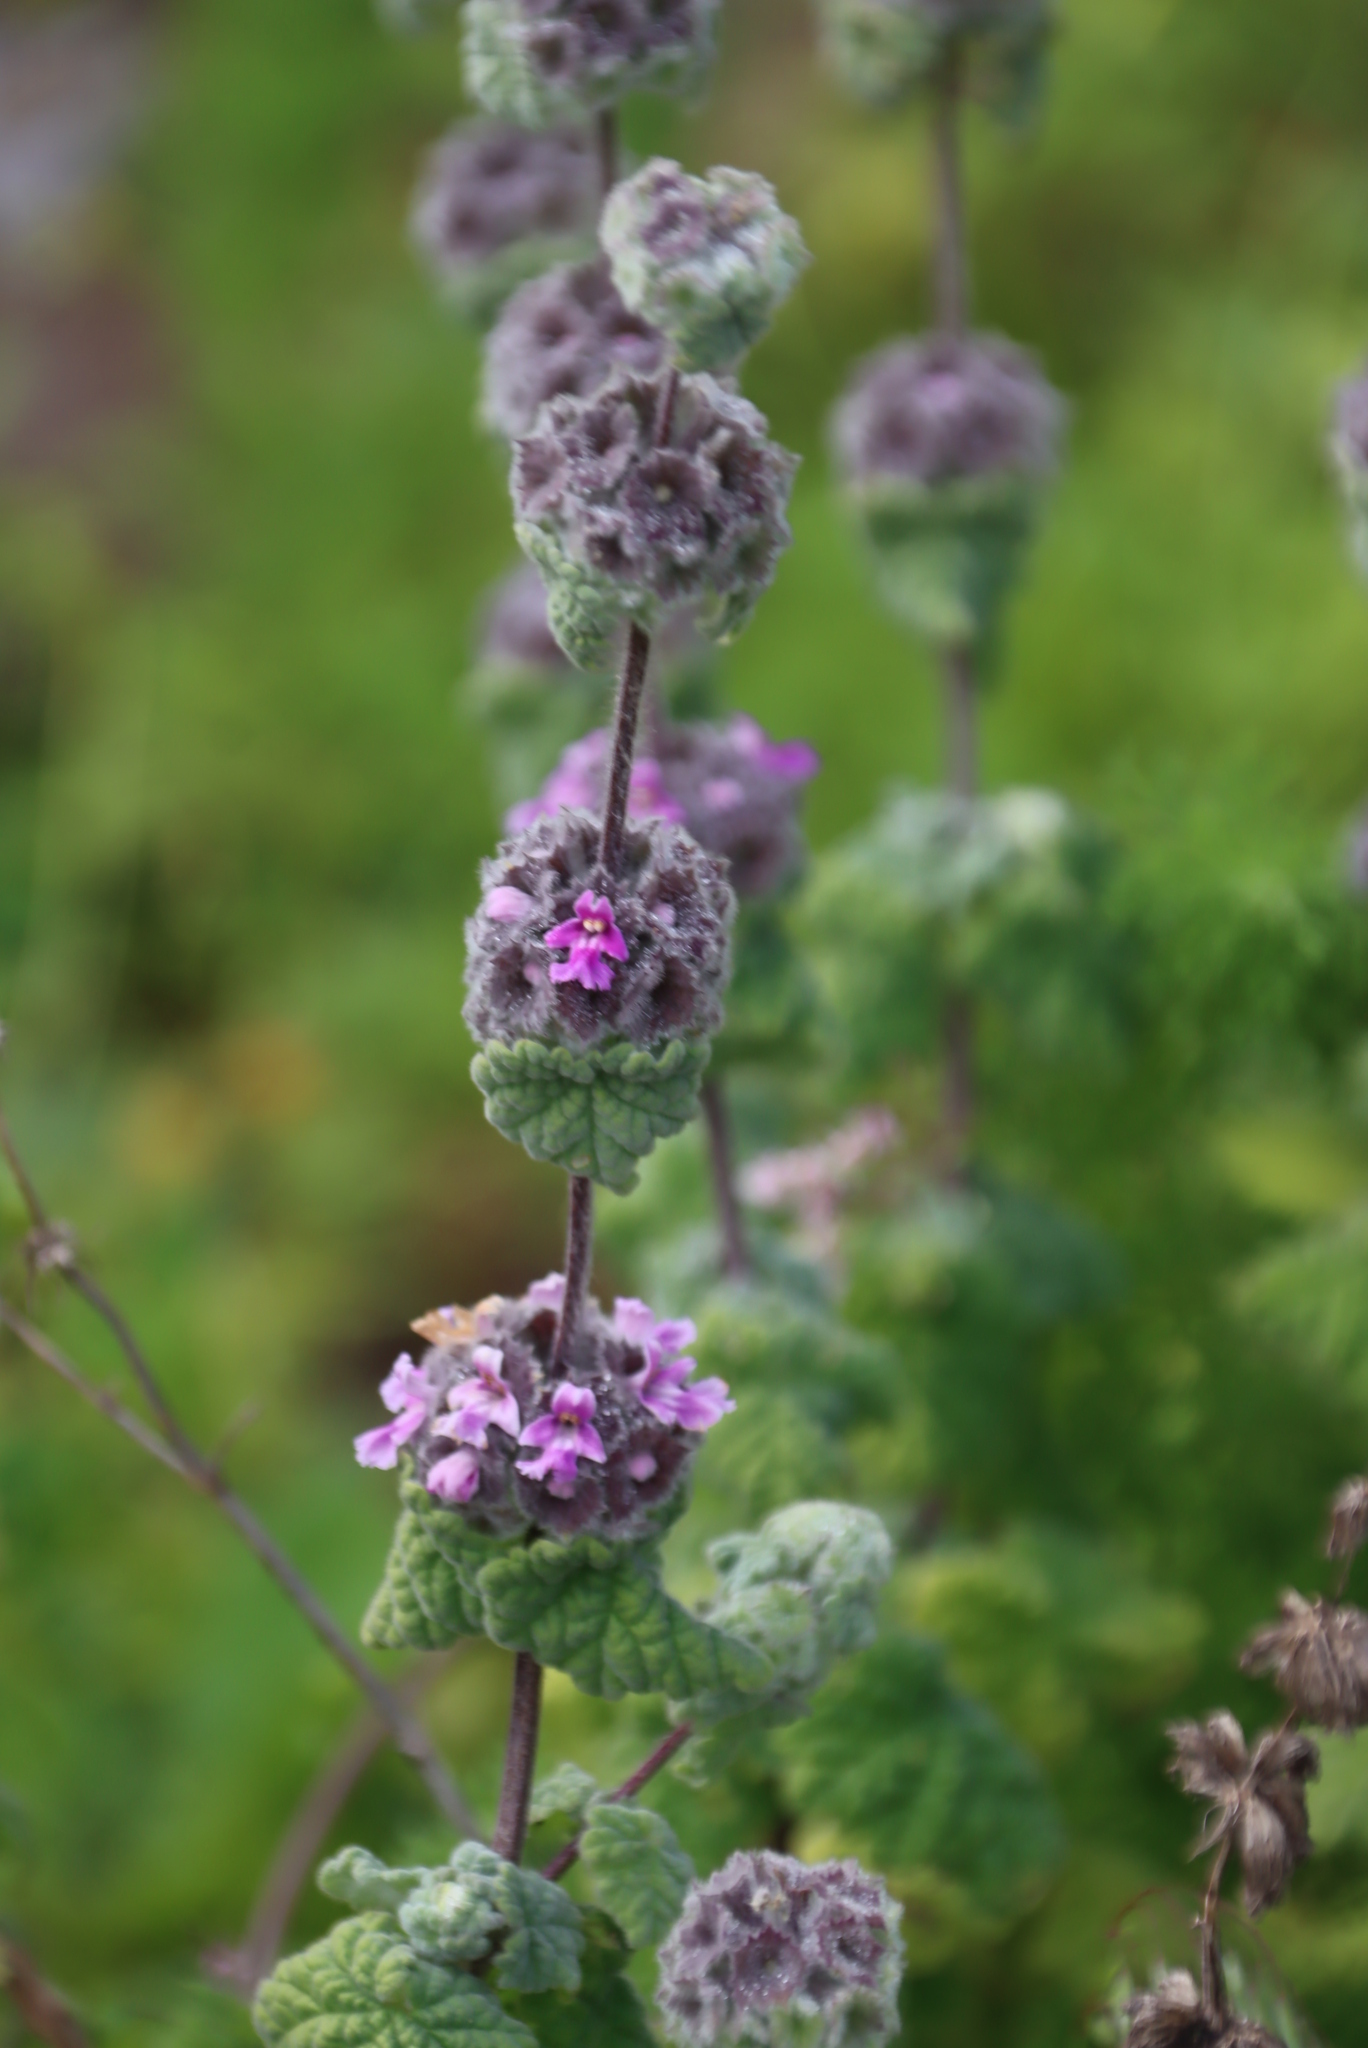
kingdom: Plantae
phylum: Tracheophyta
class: Magnoliopsida
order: Lamiales
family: Lamiaceae
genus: Pseudodictamnus
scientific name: Pseudodictamnus africanus
